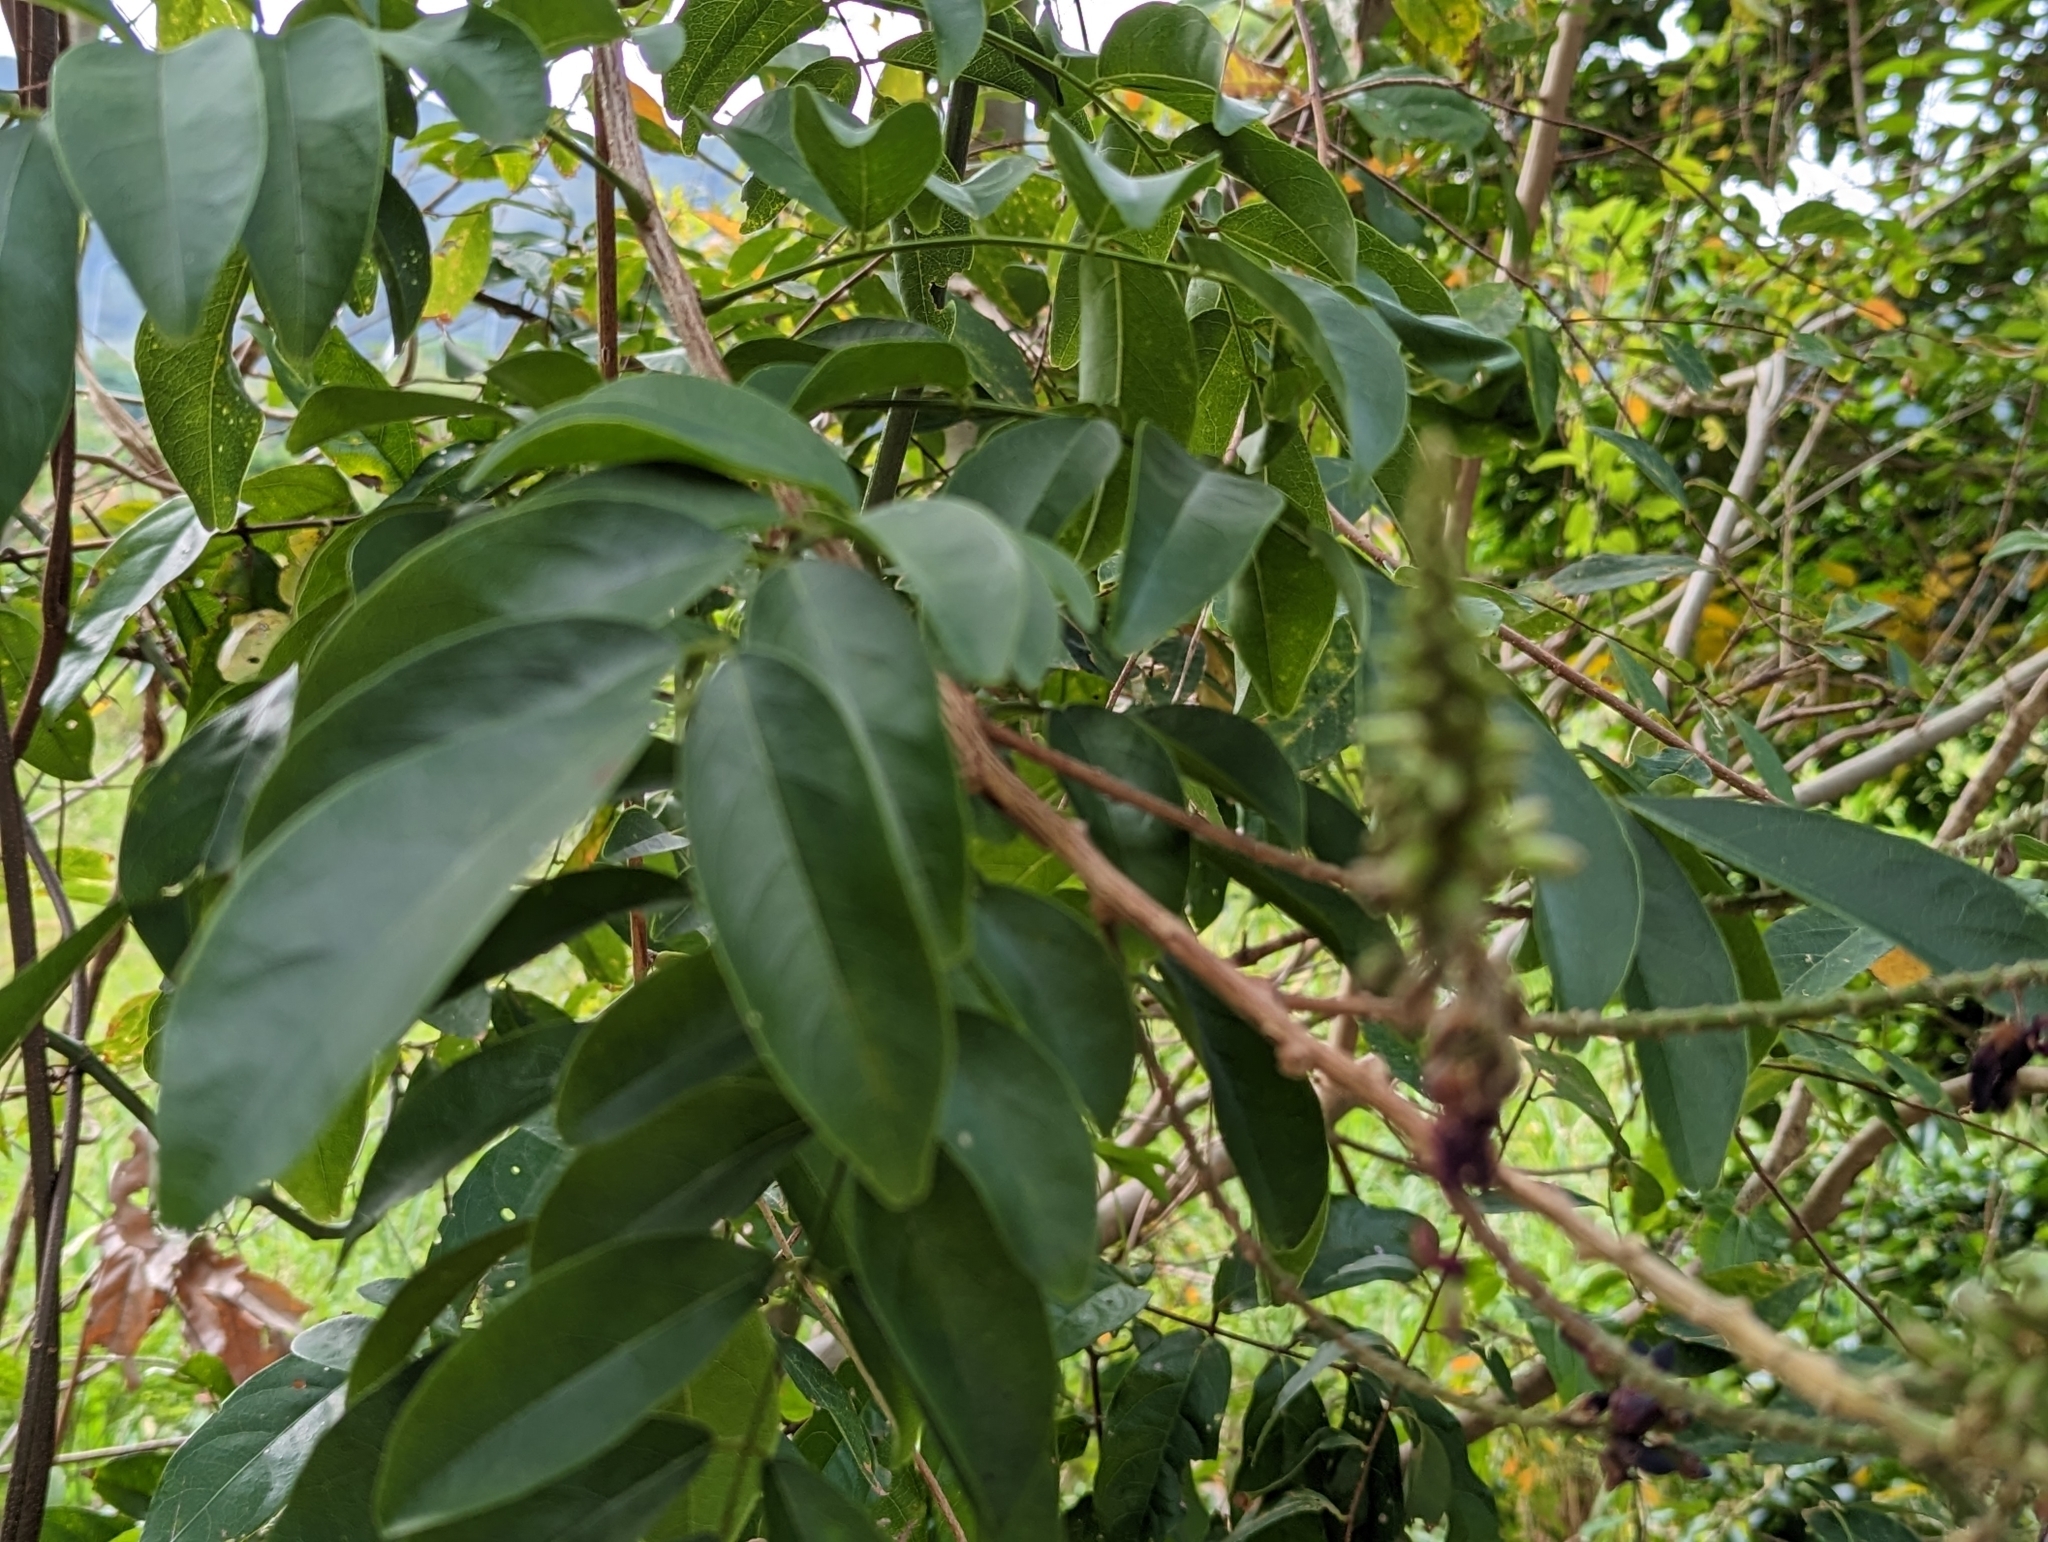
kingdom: Plantae
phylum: Tracheophyta
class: Magnoliopsida
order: Fabales
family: Fabaceae
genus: Wisteriopsis
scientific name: Wisteriopsis reticulata
